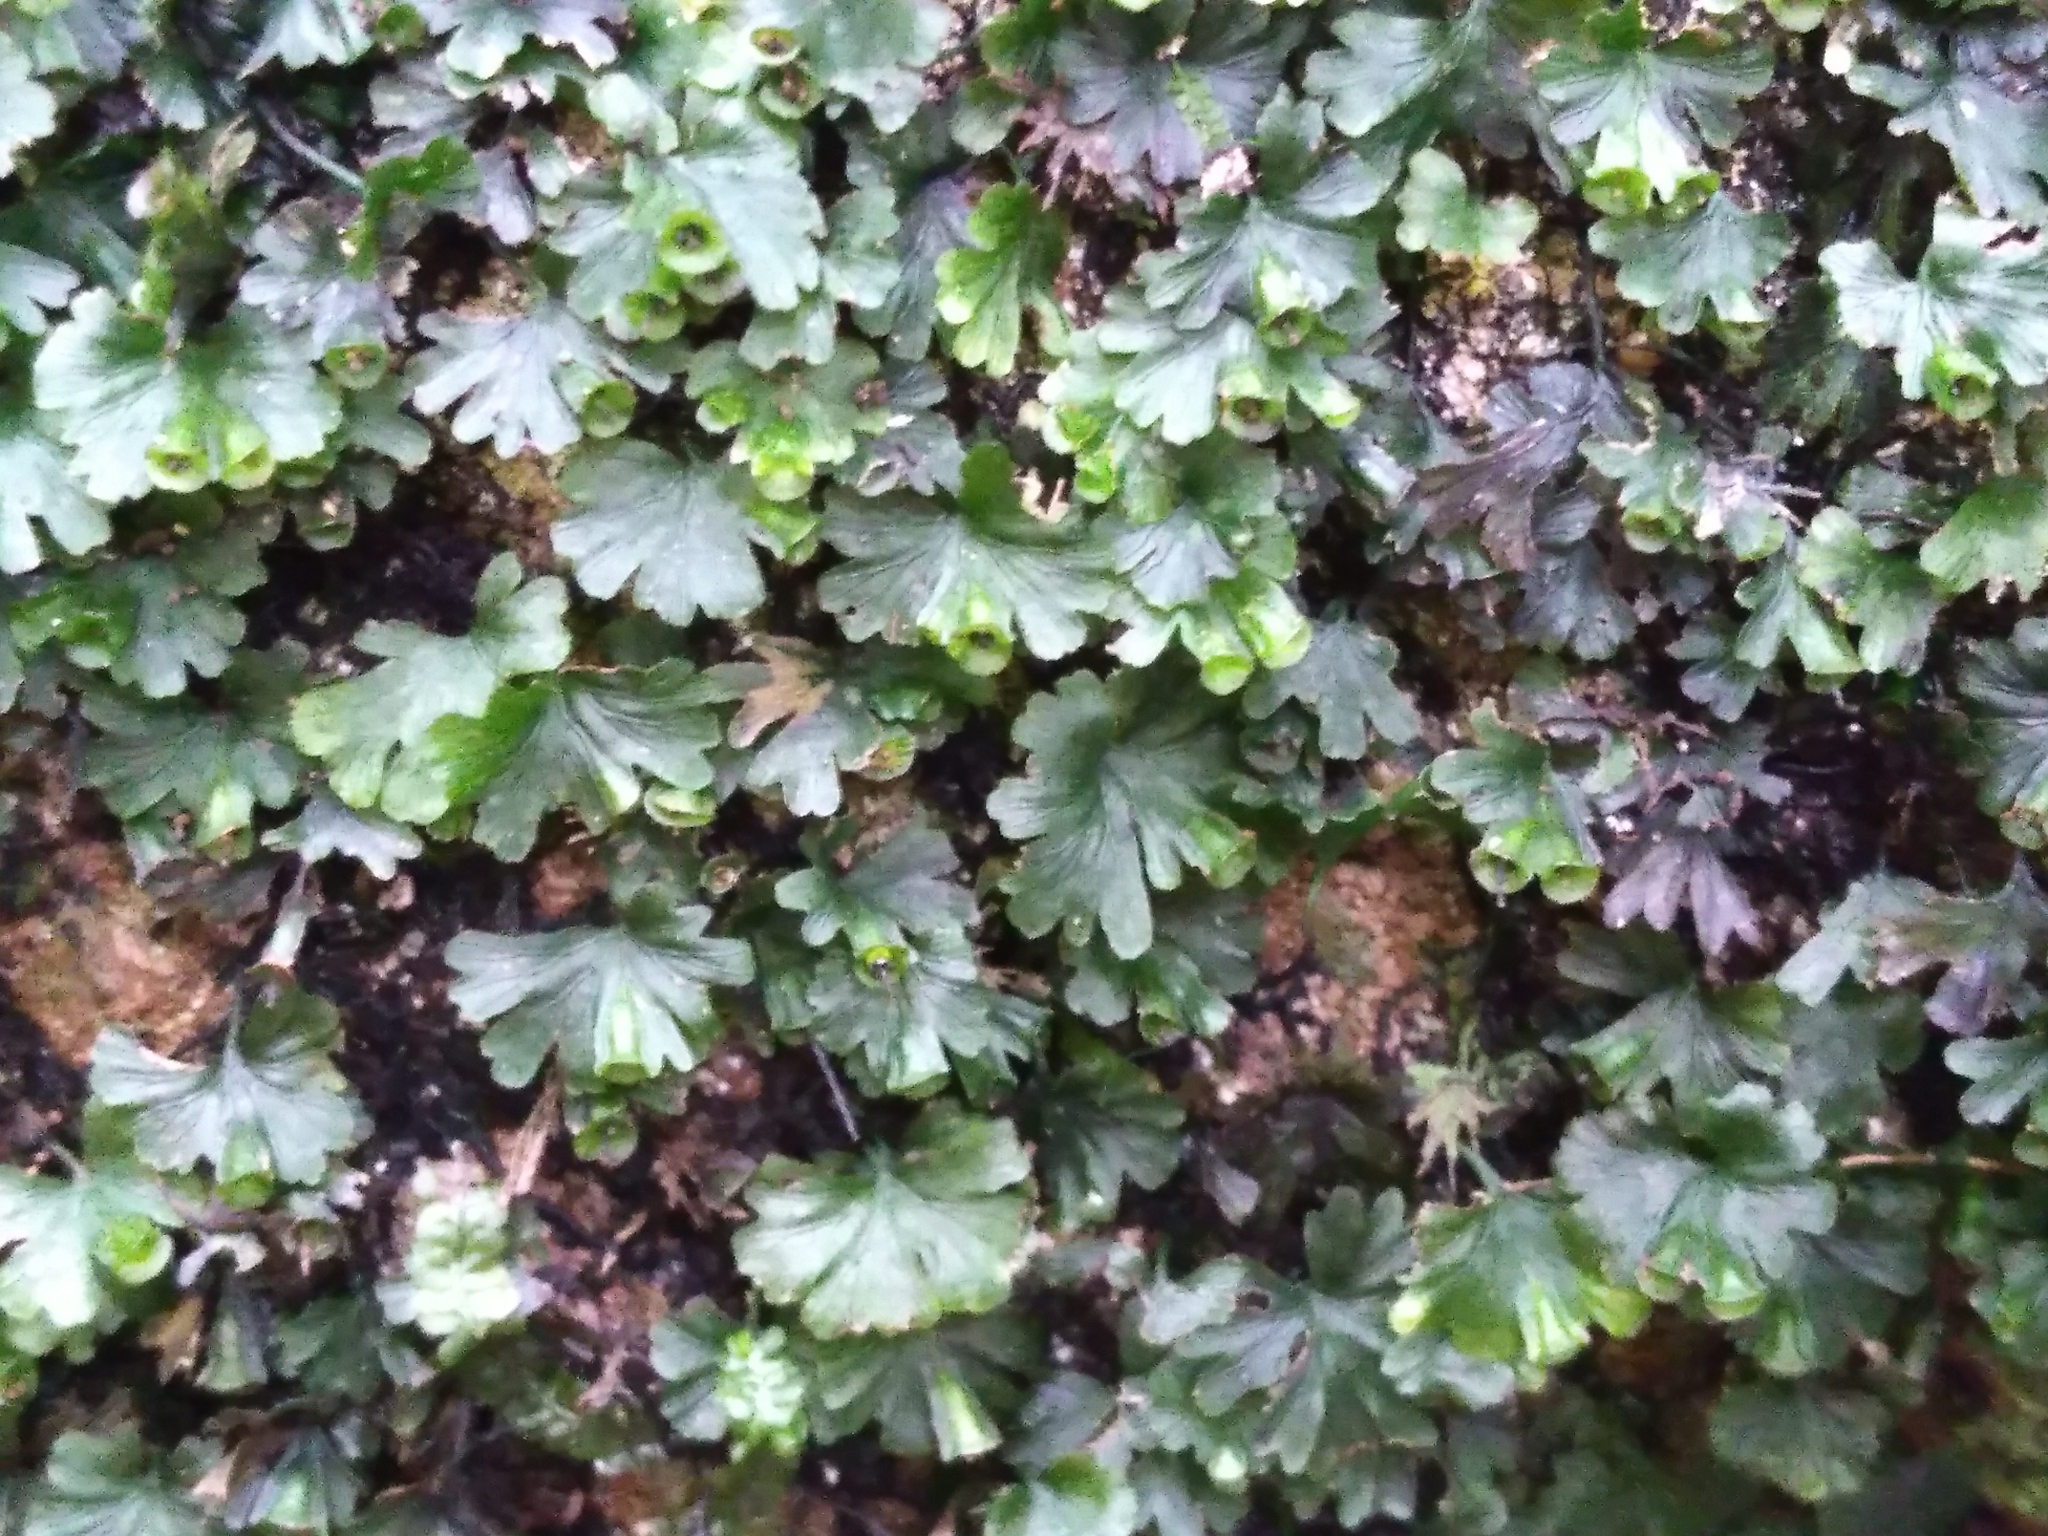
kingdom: Plantae
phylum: Tracheophyta
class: Polypodiopsida
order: Hymenophyllales
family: Hymenophyllaceae
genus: Crepidomanes
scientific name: Crepidomanes saxifragoides
